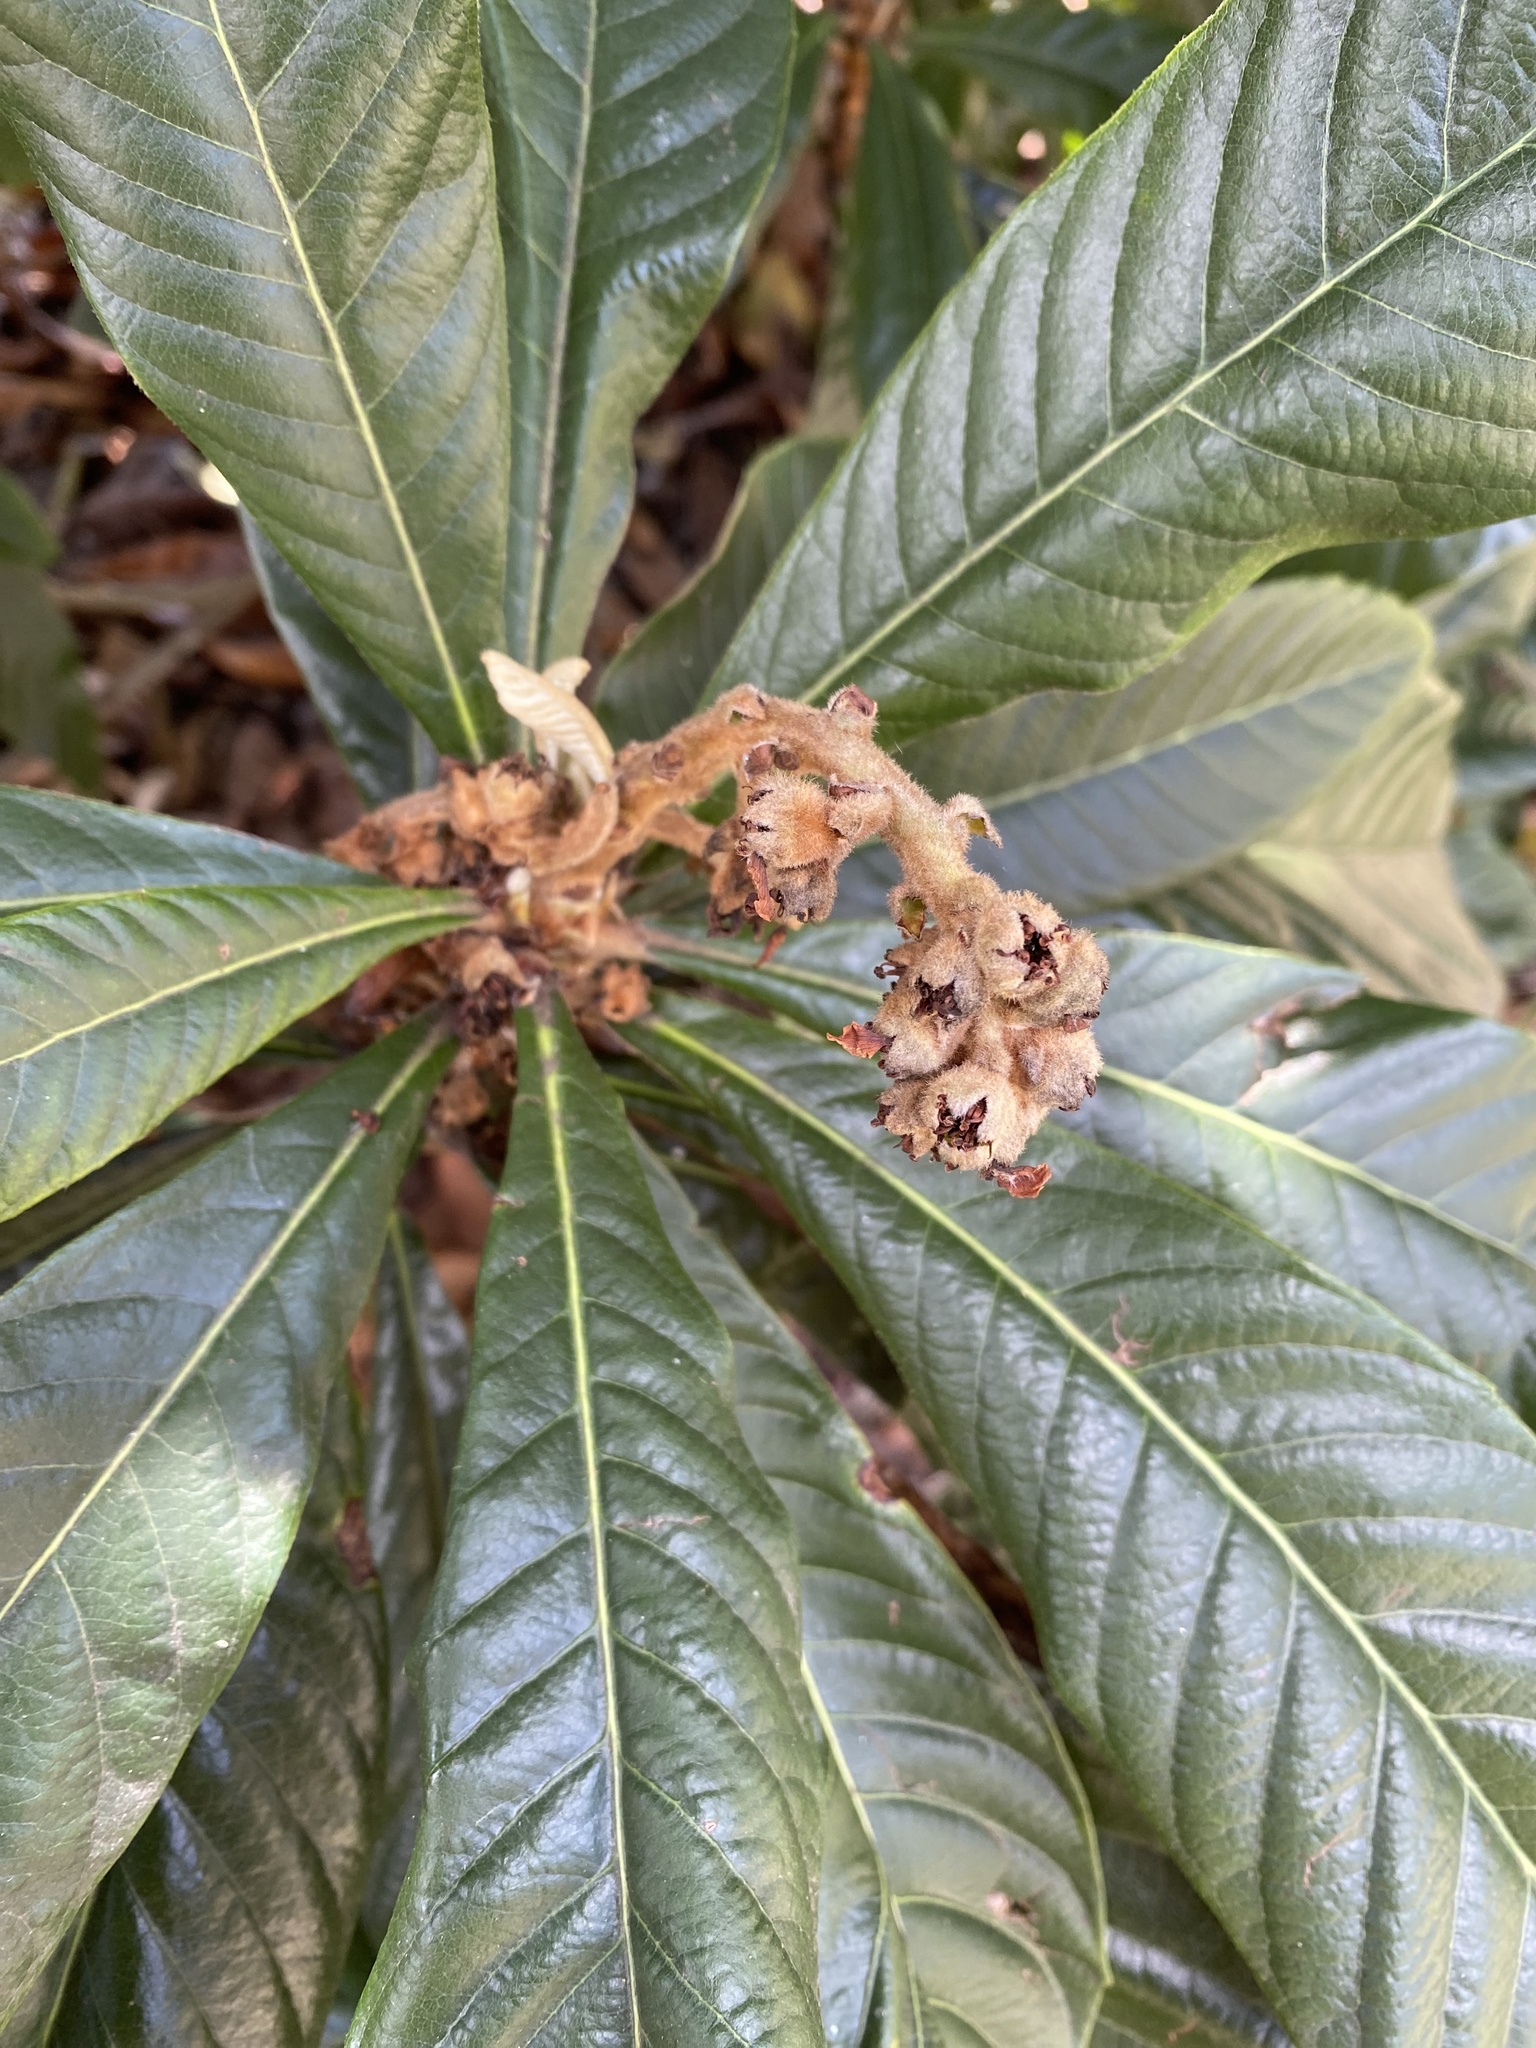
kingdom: Plantae
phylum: Tracheophyta
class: Magnoliopsida
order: Rosales
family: Rosaceae
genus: Rhaphiolepis
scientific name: Rhaphiolepis bibas
